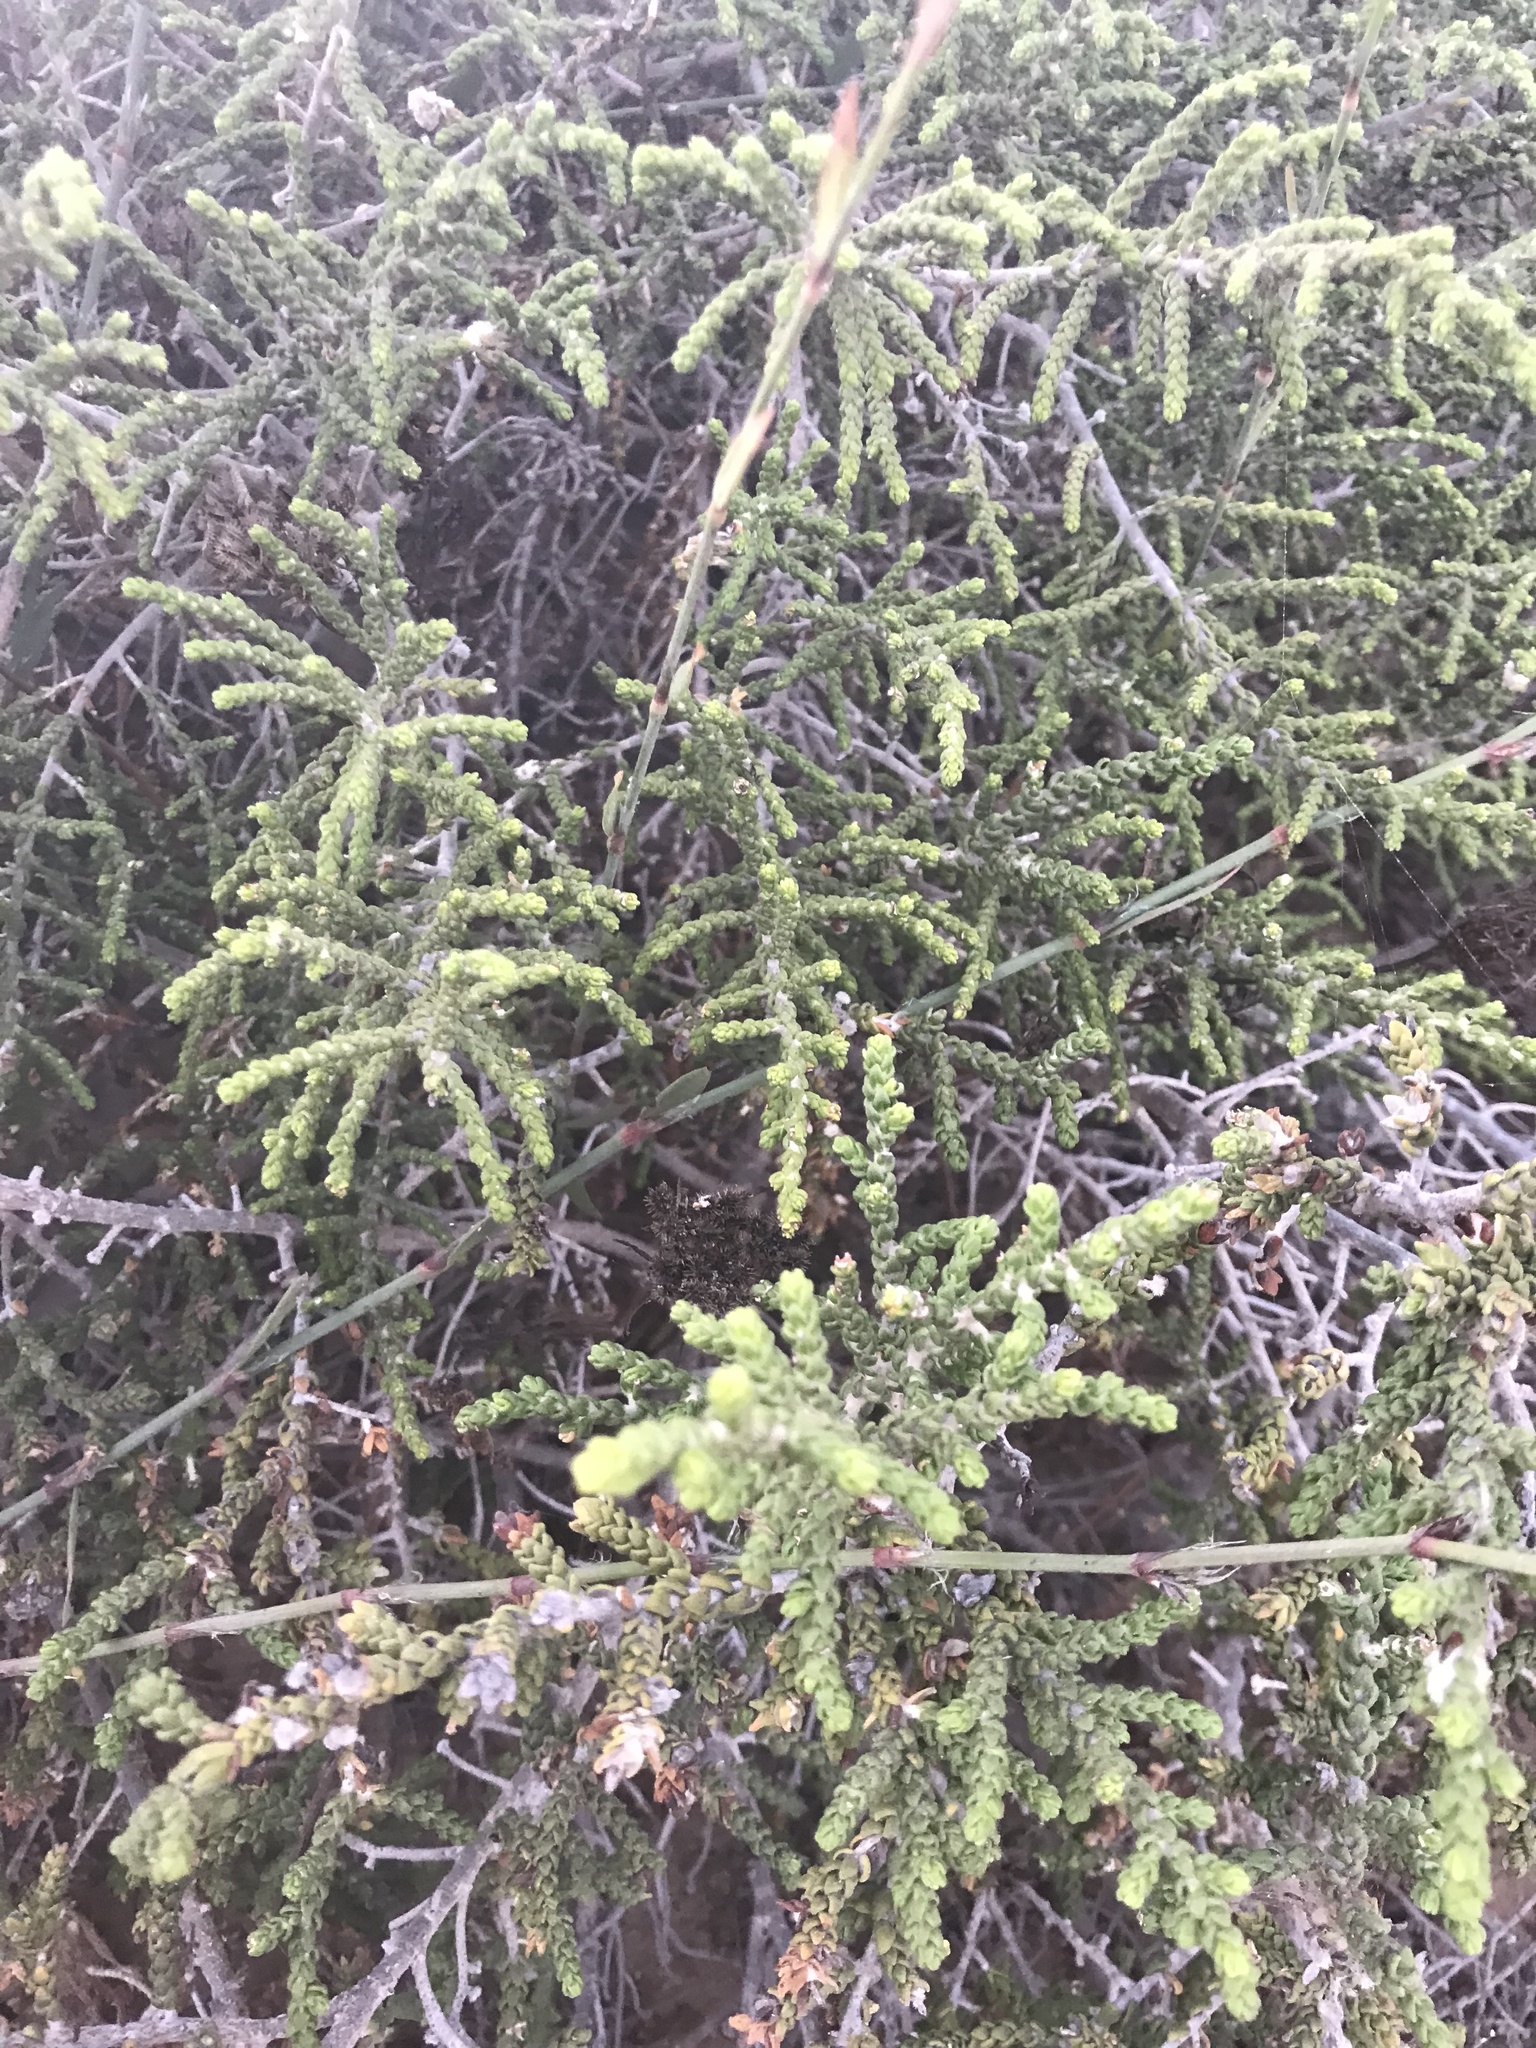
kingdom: Plantae
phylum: Tracheophyta
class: Magnoliopsida
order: Malvales
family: Thymelaeaceae
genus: Thymelaea
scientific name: Thymelaea hirsuta
